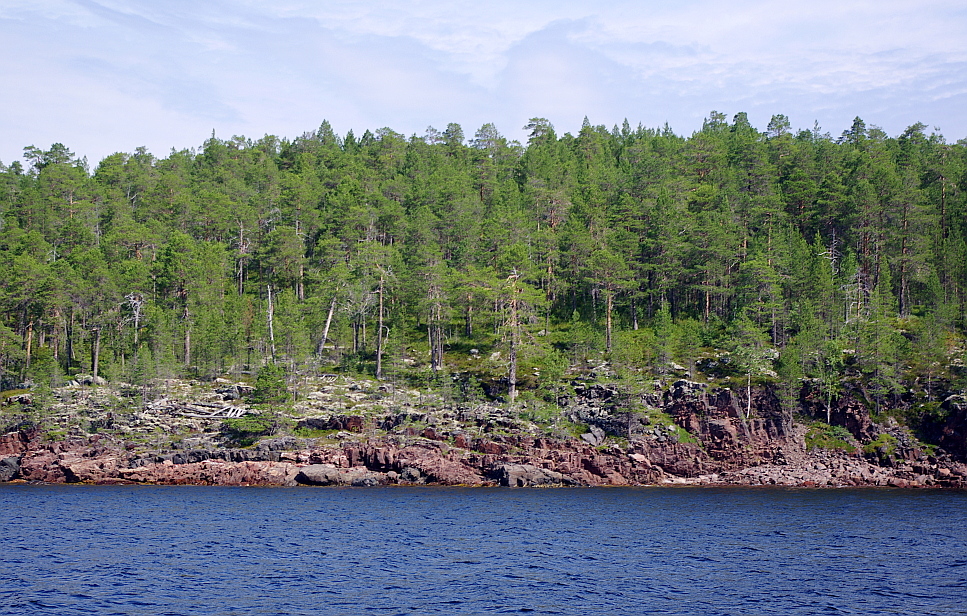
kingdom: Plantae
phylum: Tracheophyta
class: Pinopsida
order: Pinales
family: Pinaceae
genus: Pinus
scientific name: Pinus sylvestris
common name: Scots pine
